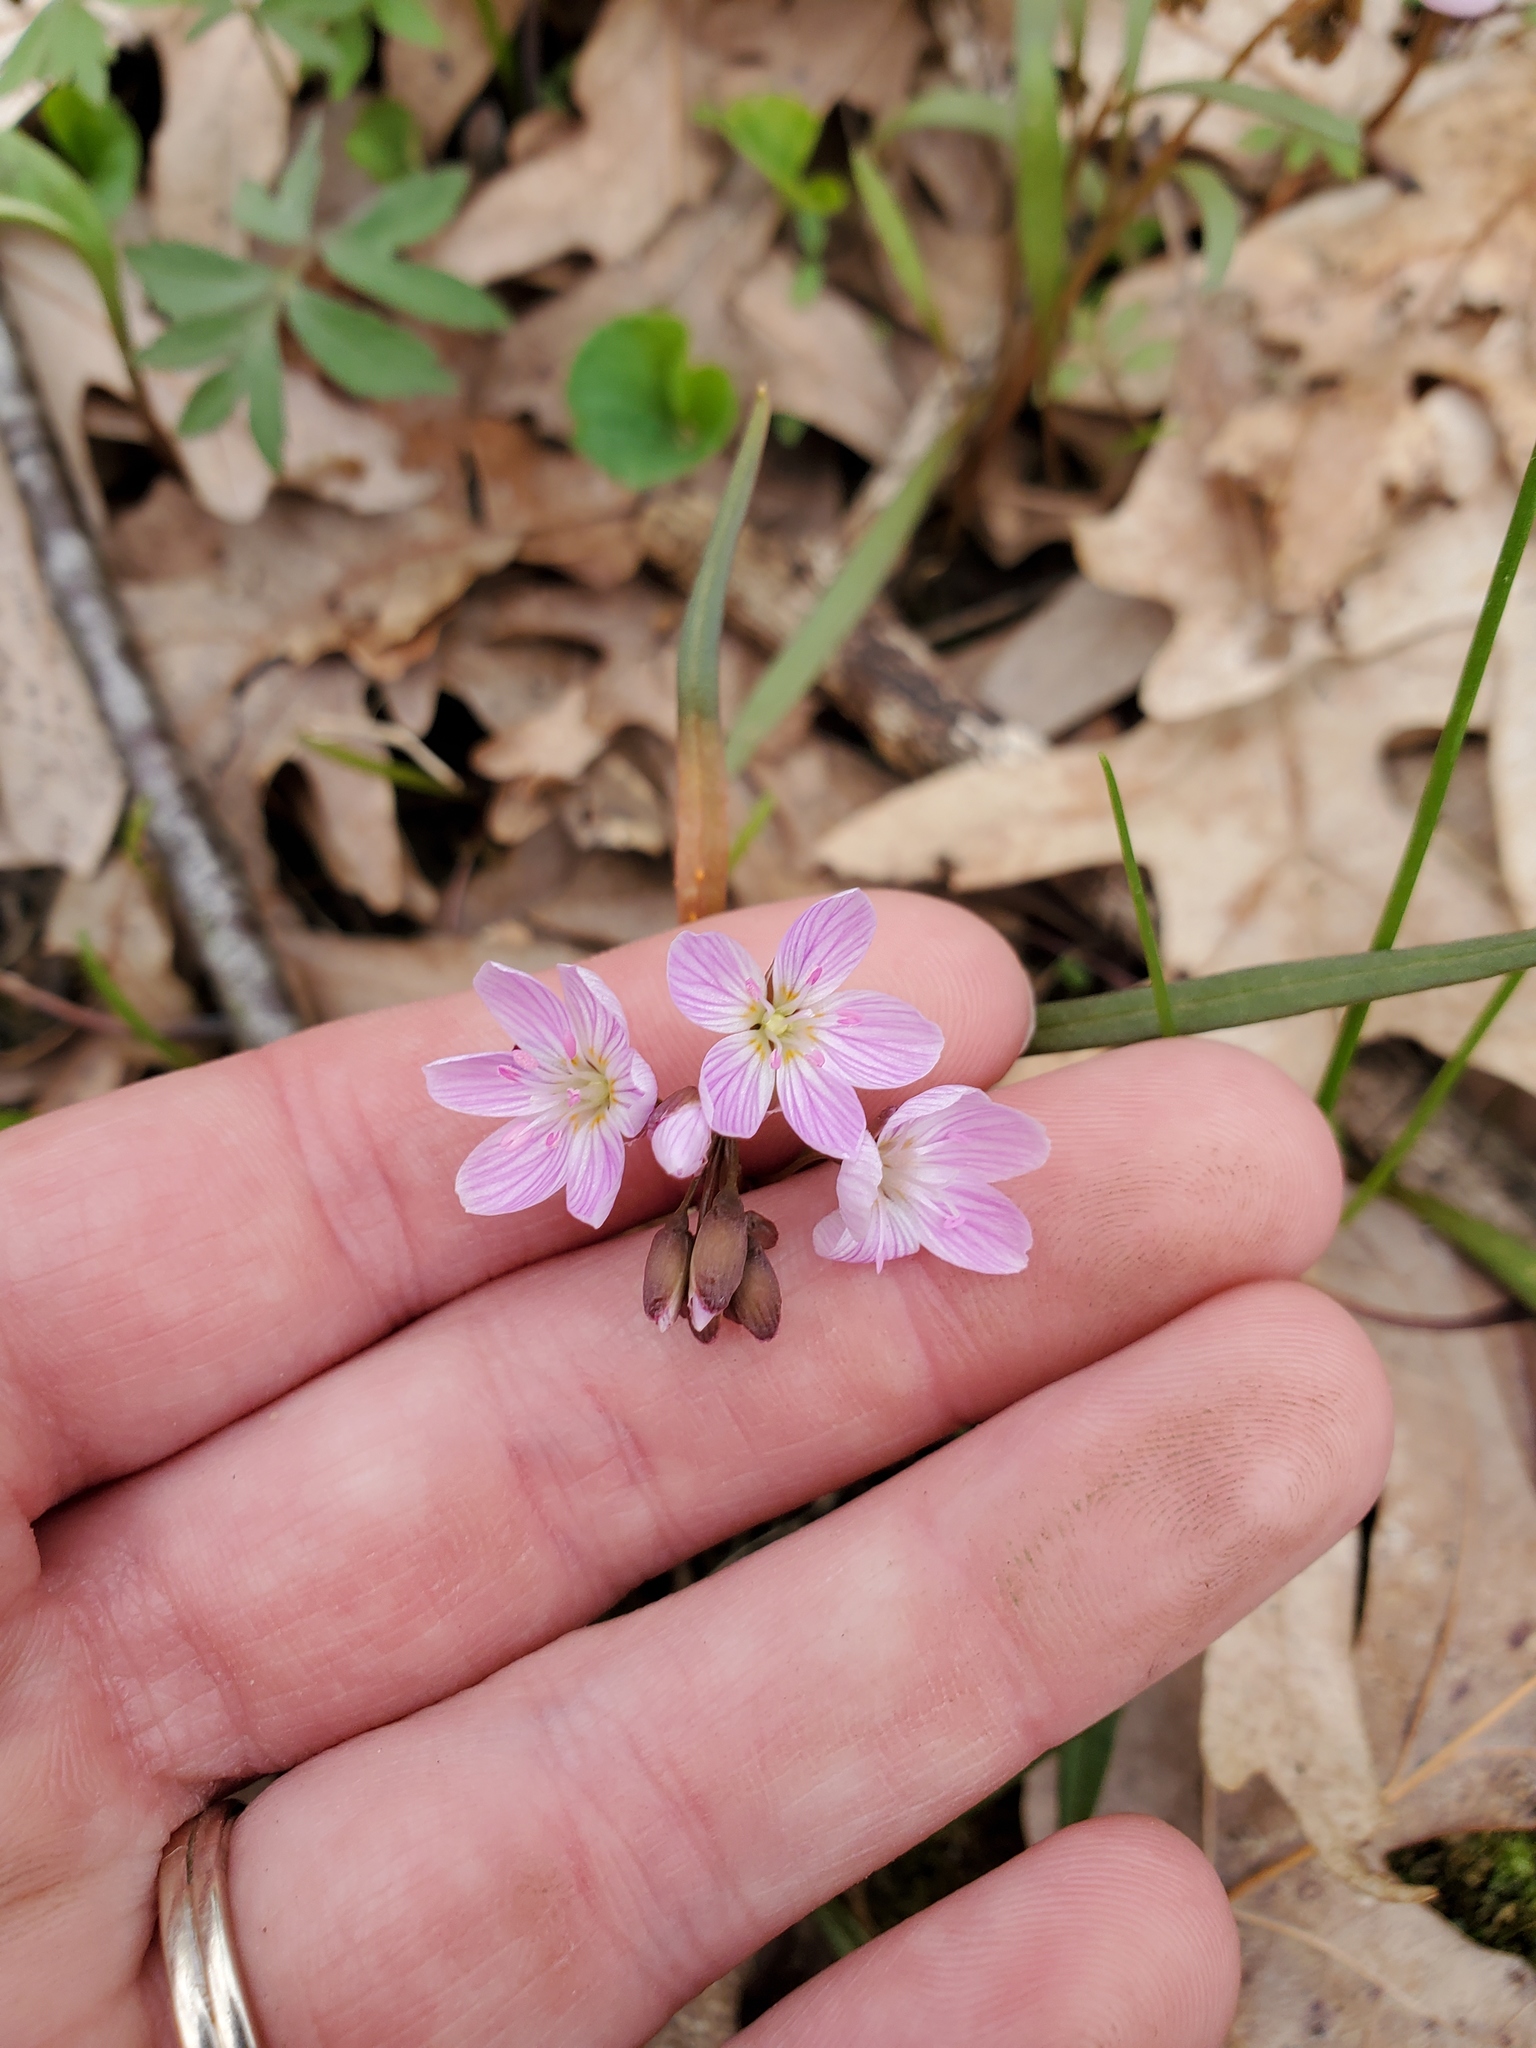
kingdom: Plantae
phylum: Tracheophyta
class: Magnoliopsida
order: Caryophyllales
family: Montiaceae
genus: Claytonia
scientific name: Claytonia virginica
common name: Virginia springbeauty
